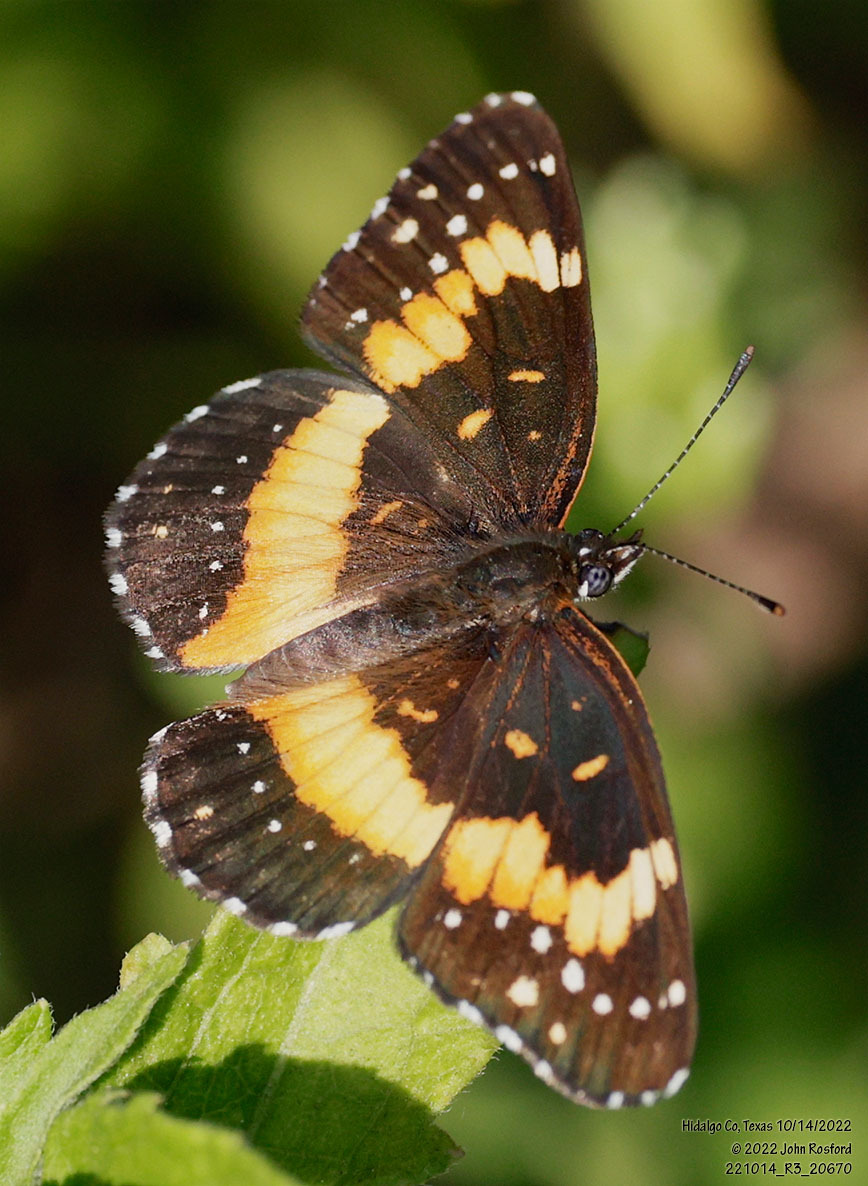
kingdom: Animalia
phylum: Arthropoda
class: Insecta
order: Lepidoptera
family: Nymphalidae
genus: Chlosyne
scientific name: Chlosyne lacinia
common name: Bordered patch
